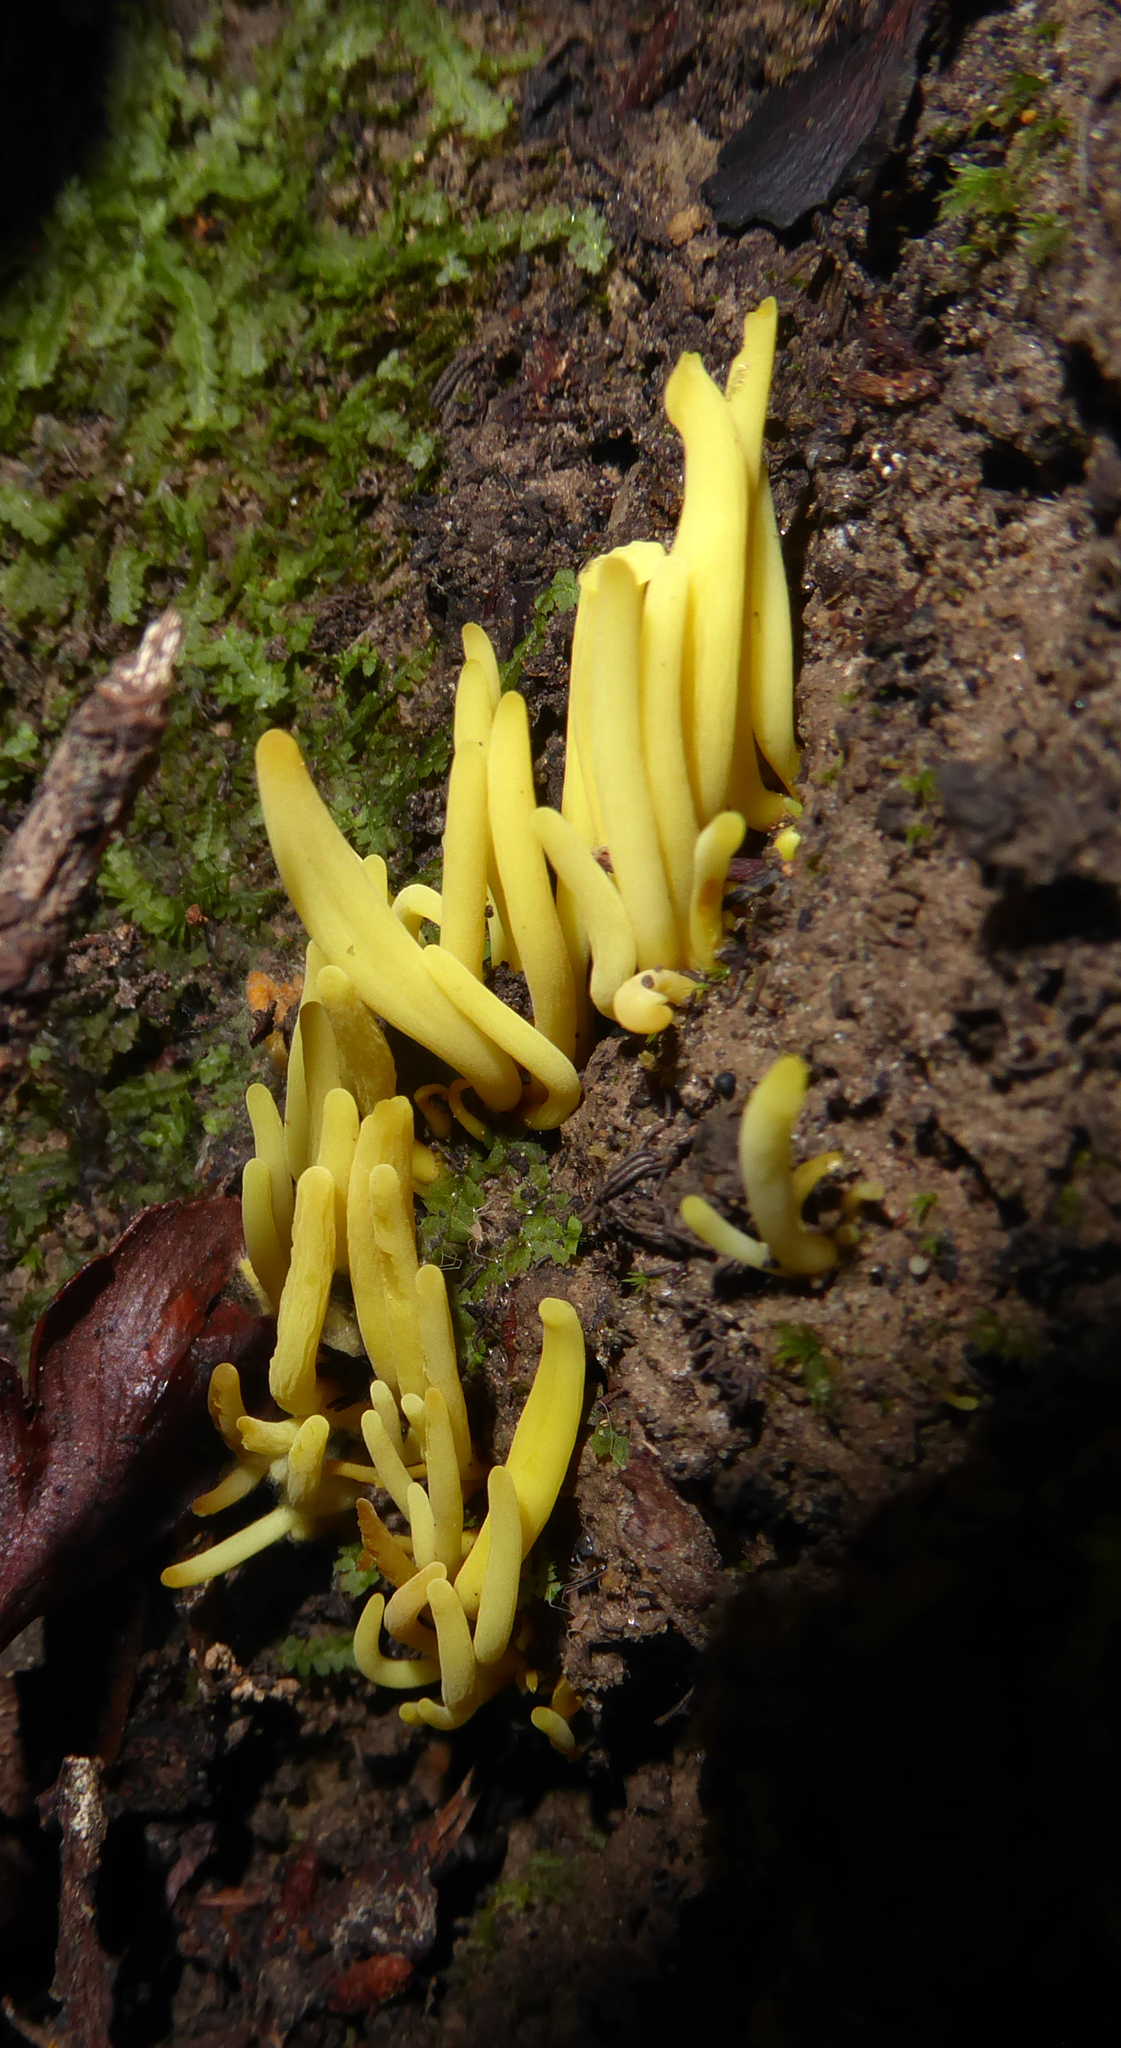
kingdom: Fungi
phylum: Basidiomycota
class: Agaricomycetes
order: Agaricales
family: Clavariaceae
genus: Clavulinopsis
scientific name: Clavulinopsis antillarum
